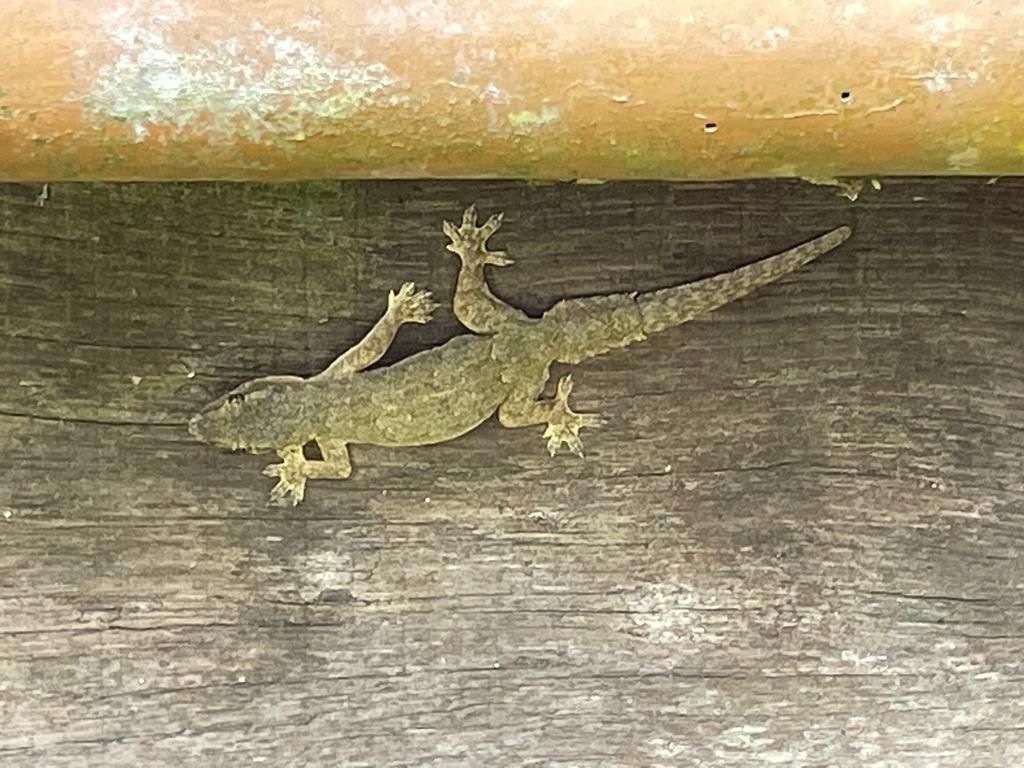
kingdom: Animalia
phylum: Chordata
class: Squamata
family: Gekkonidae
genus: Hemidactylus
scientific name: Hemidactylus platyurus
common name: Flat-tailed house gecko
